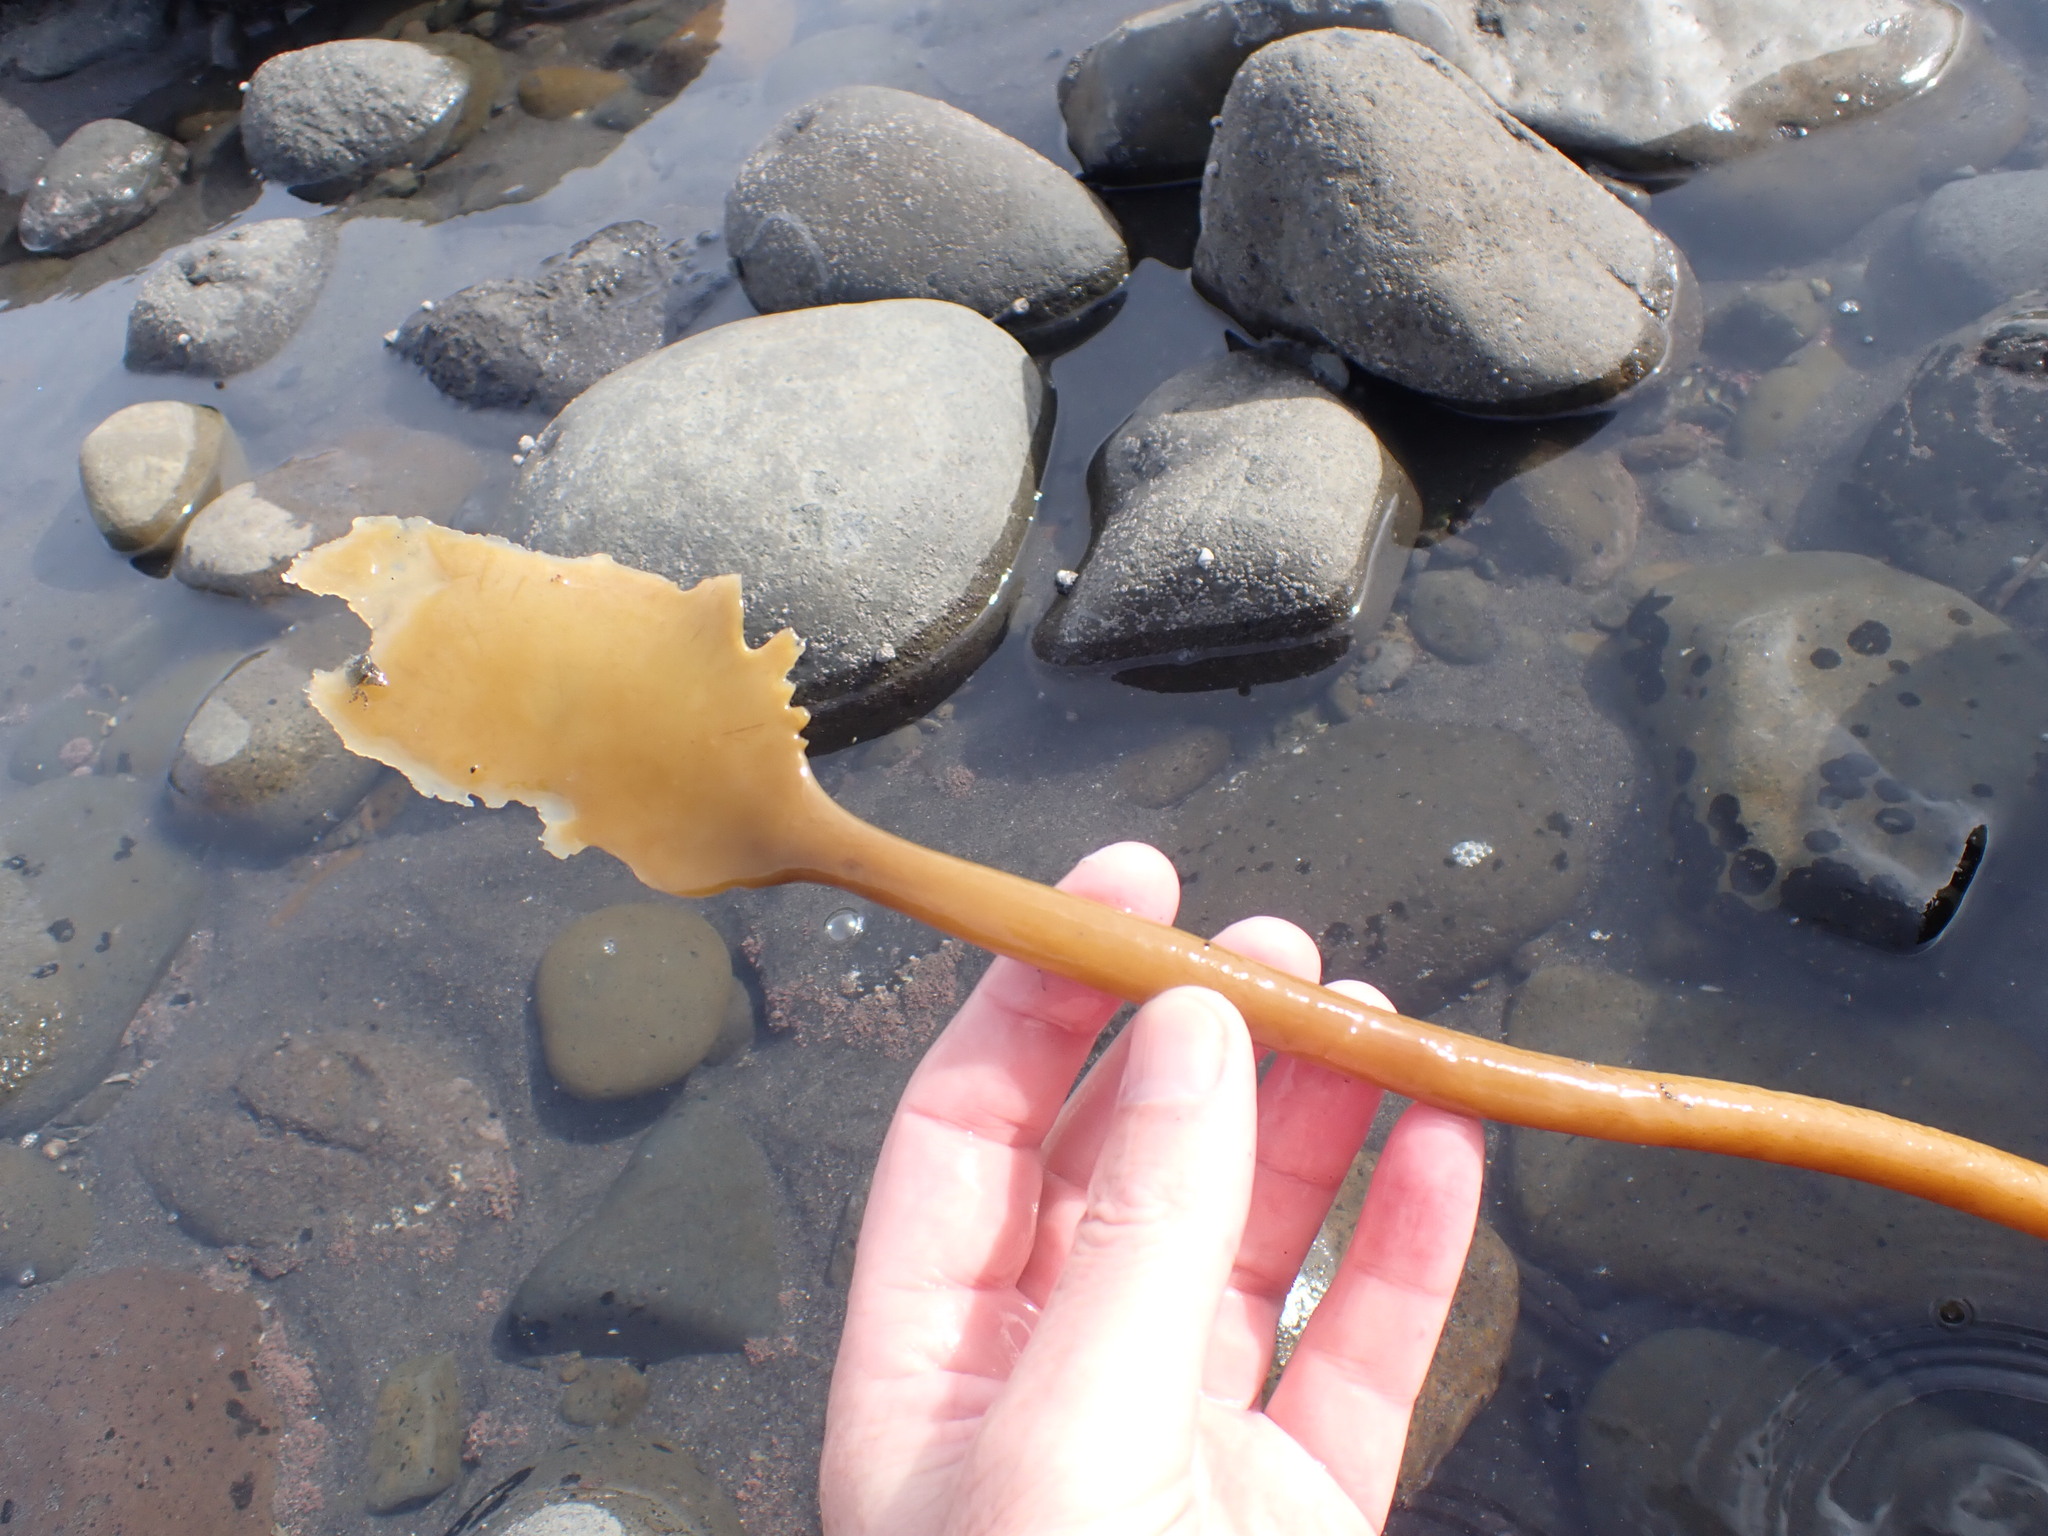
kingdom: Chromista
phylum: Ochrophyta
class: Phaeophyceae
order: Laminariales
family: Lessoniaceae
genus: Ecklonia
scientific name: Ecklonia radiata
